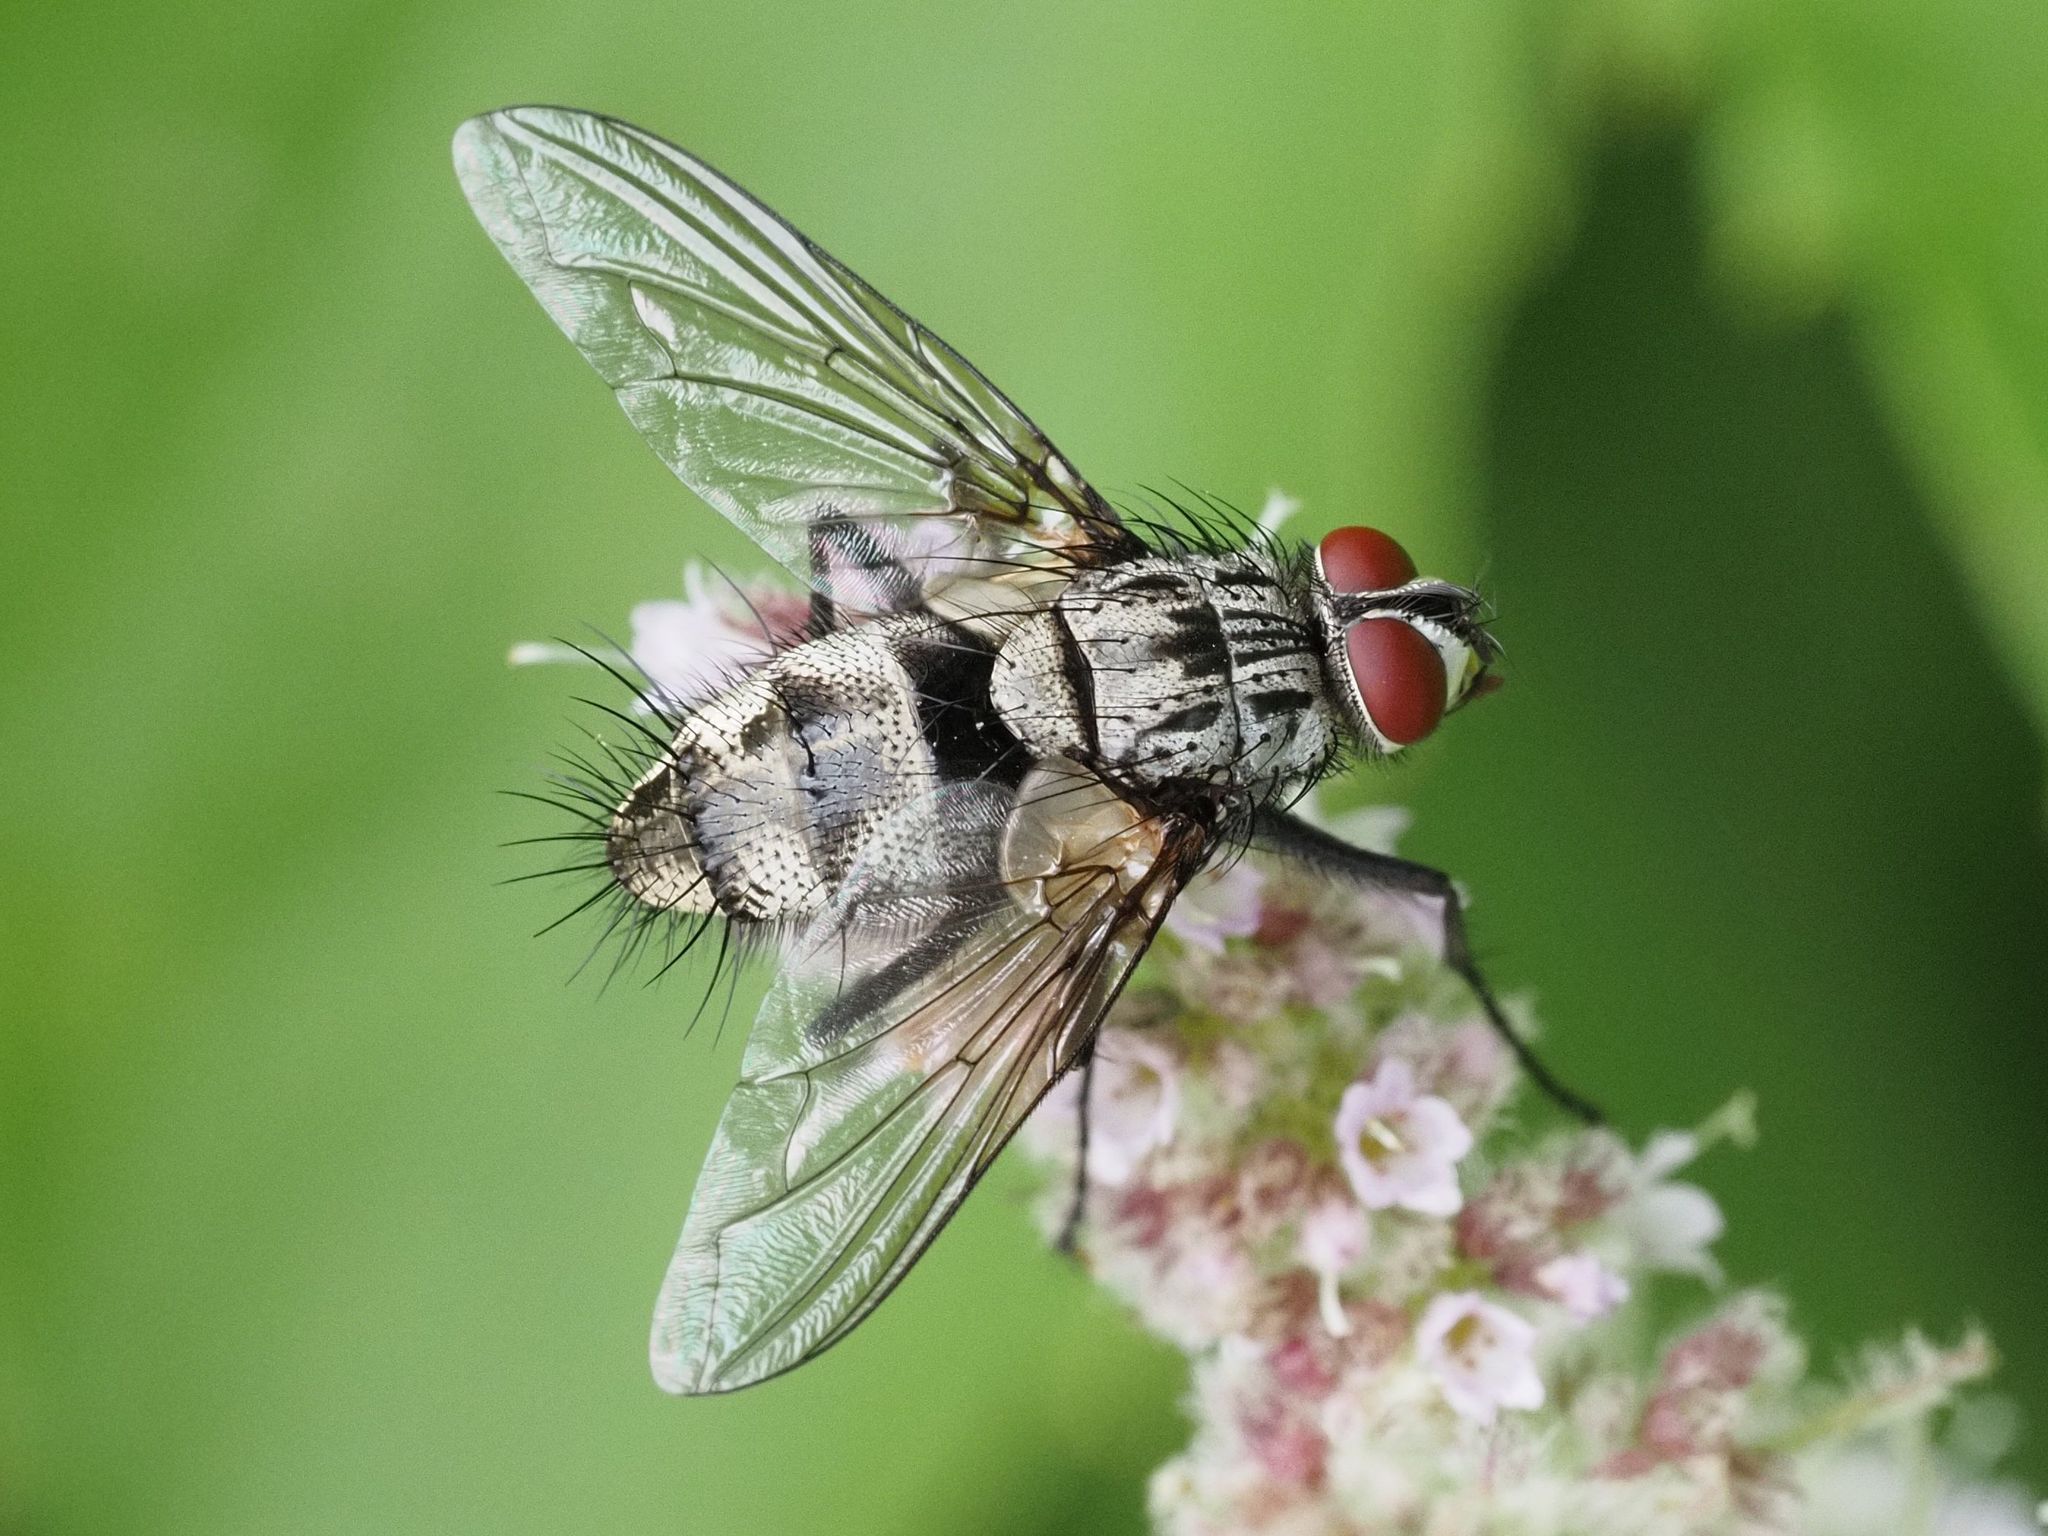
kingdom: Animalia
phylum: Arthropoda
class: Insecta
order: Diptera
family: Tachinidae
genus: Dinera
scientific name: Dinera ferina
